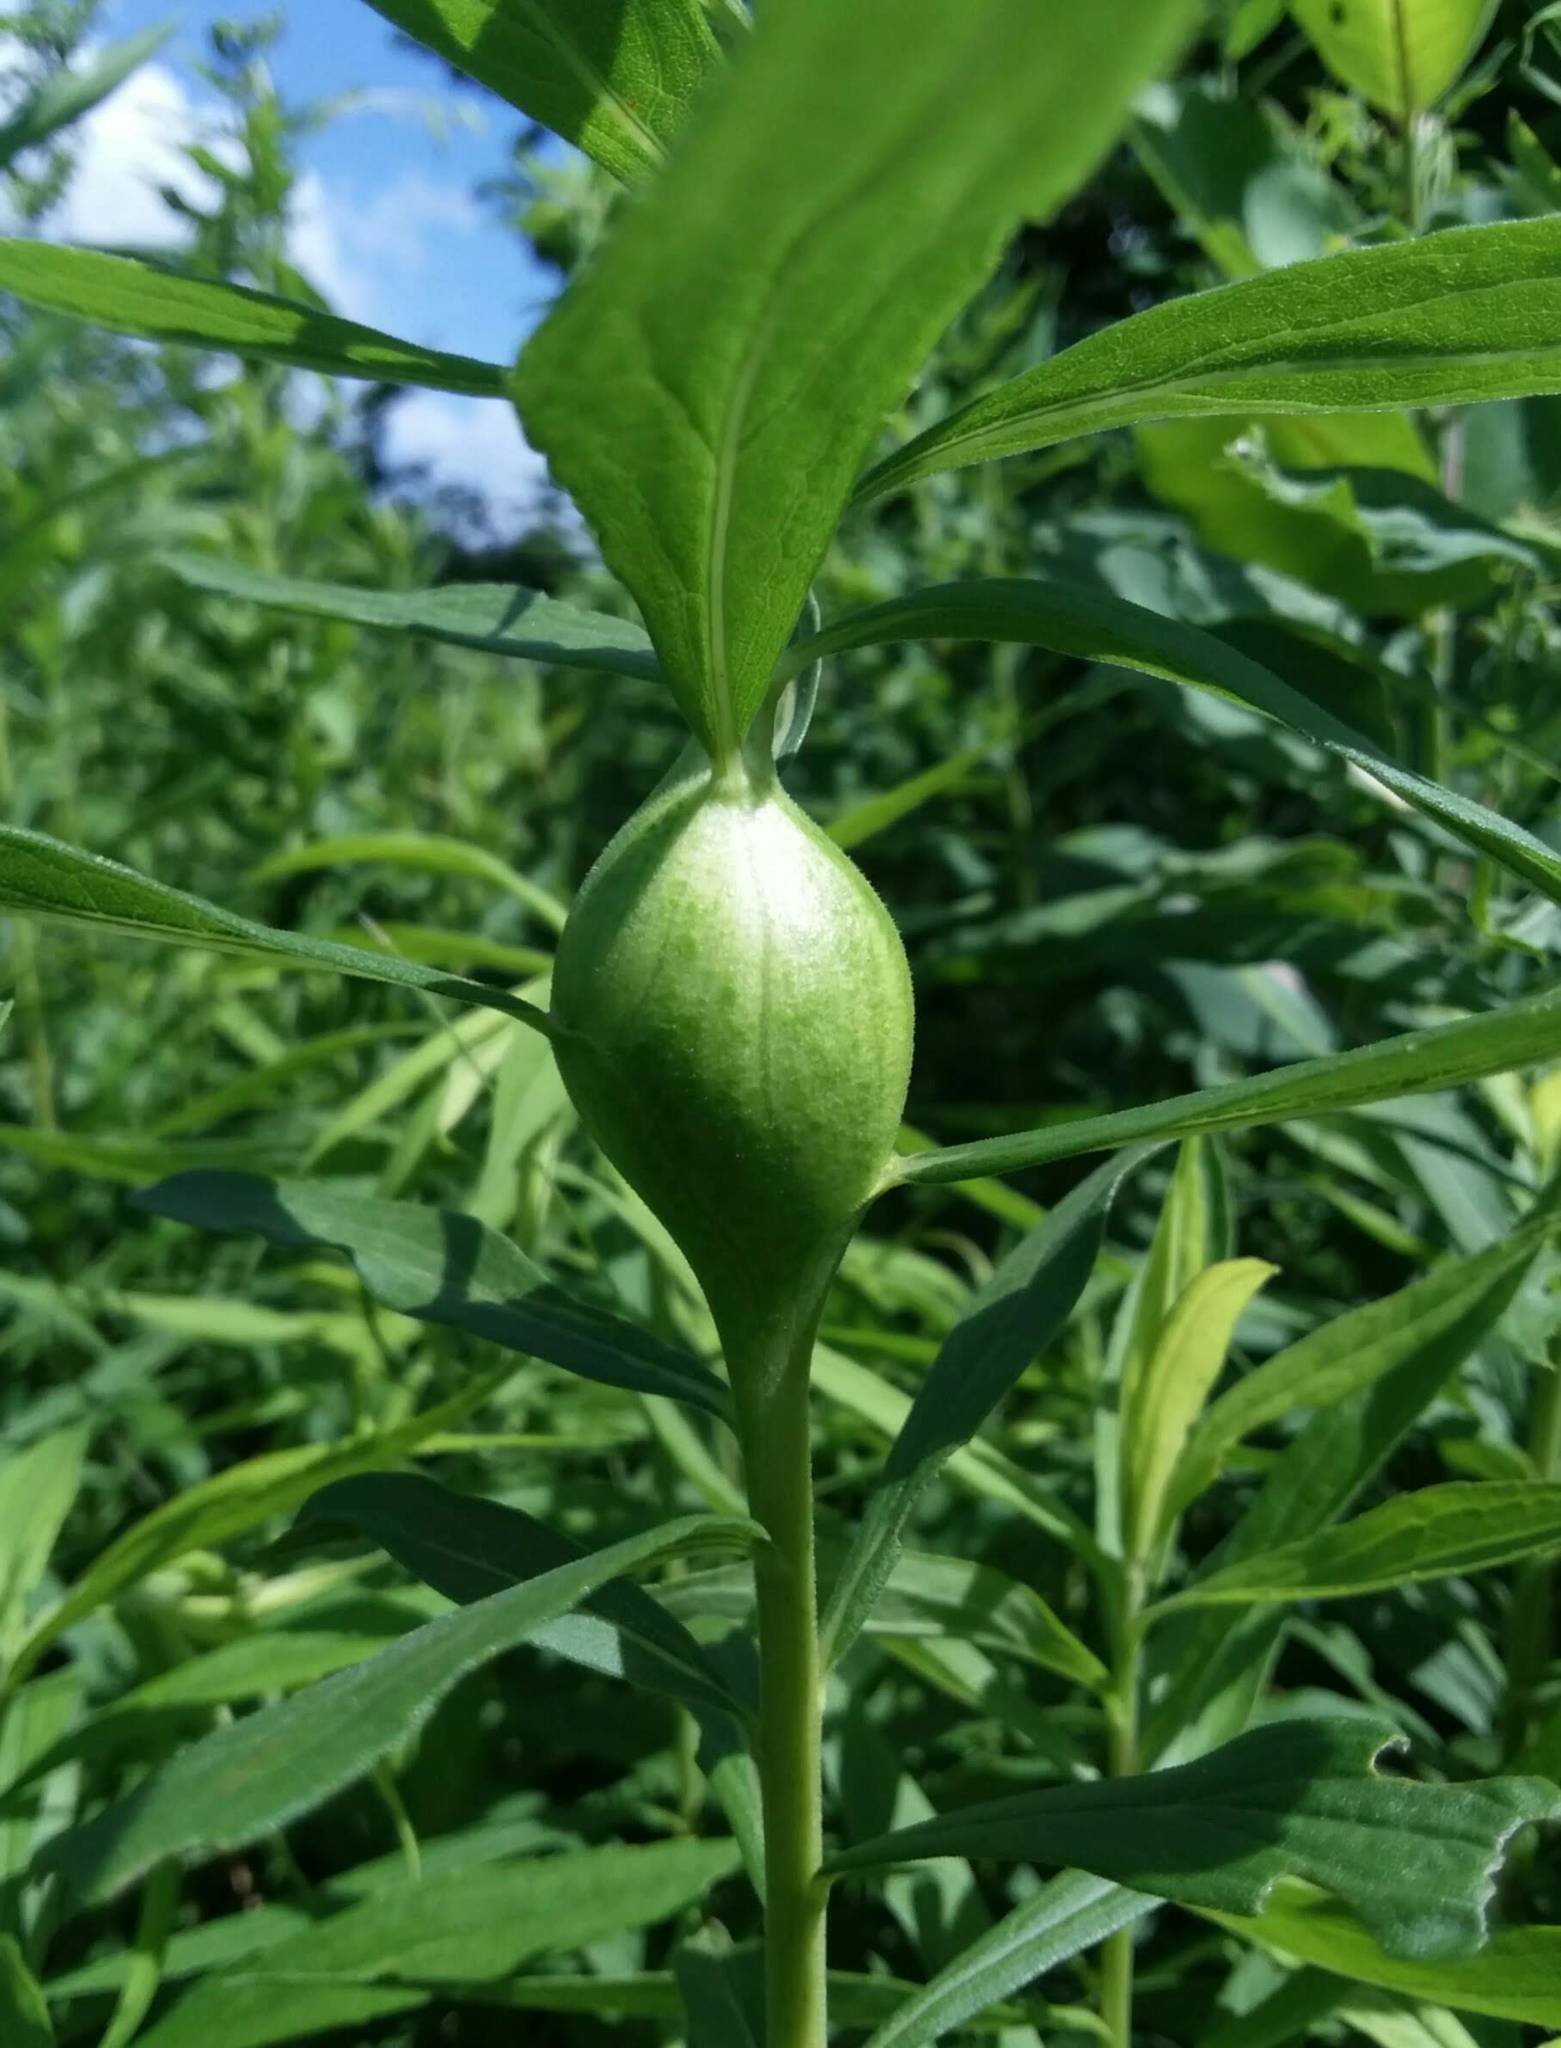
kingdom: Animalia
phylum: Arthropoda
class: Insecta
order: Diptera
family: Tephritidae
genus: Eurosta
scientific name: Eurosta solidaginis
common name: Goldenrod gall fly
